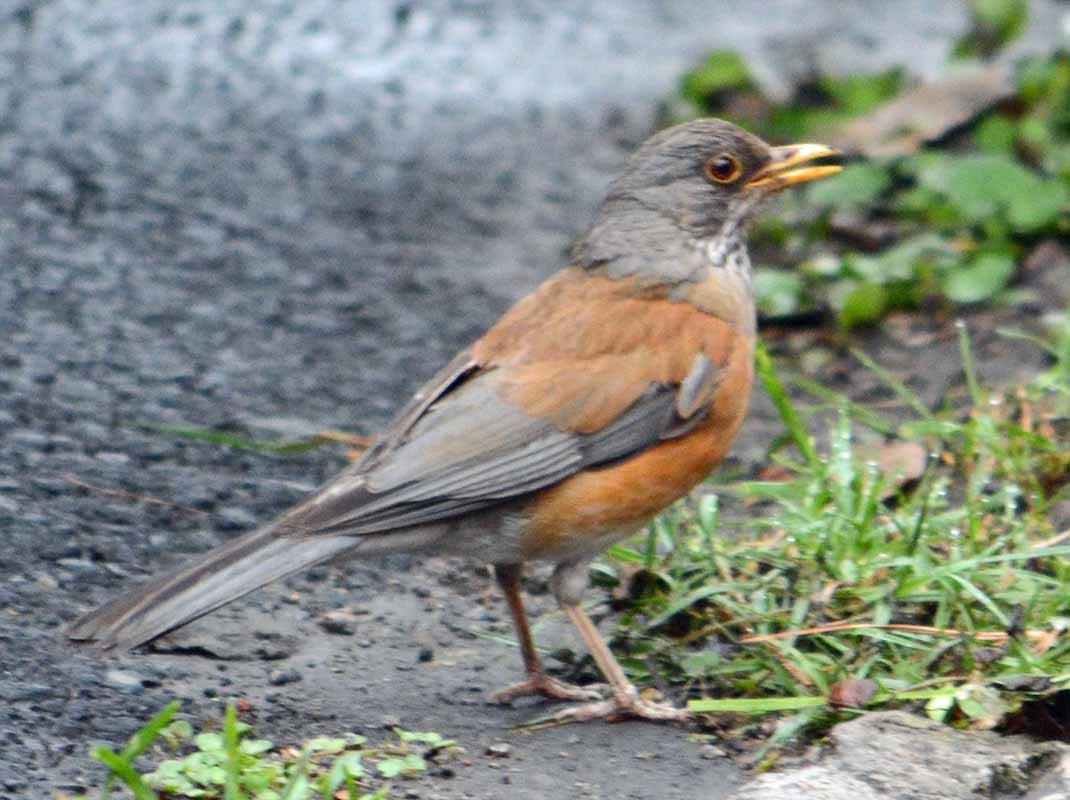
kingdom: Animalia
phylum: Chordata
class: Aves
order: Passeriformes
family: Turdidae
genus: Turdus
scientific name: Turdus rufopalliatus
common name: Rufous-backed robin
